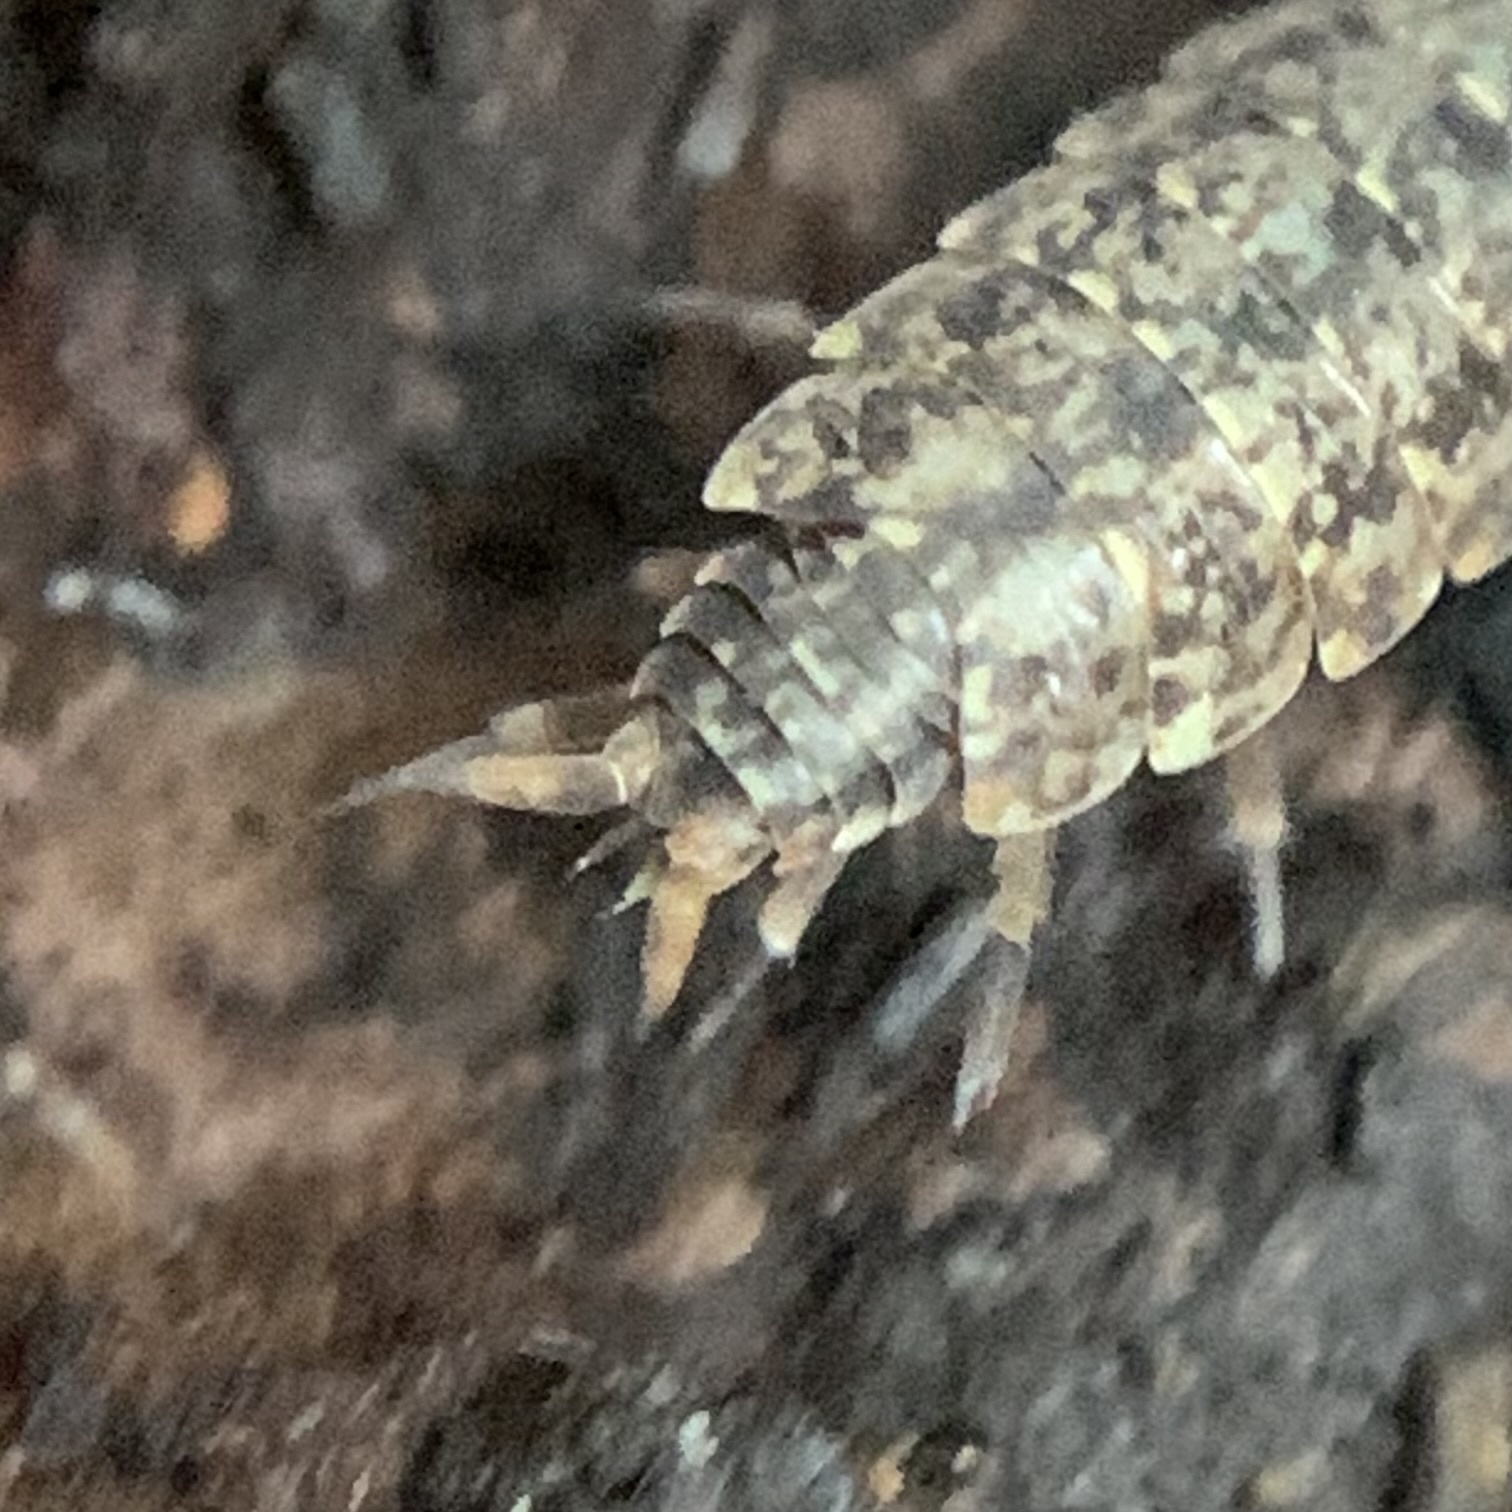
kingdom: Animalia
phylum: Arthropoda
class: Malacostraca
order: Isopoda
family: Porcellionidae
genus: Porcellionides
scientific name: Porcellionides cingendus
